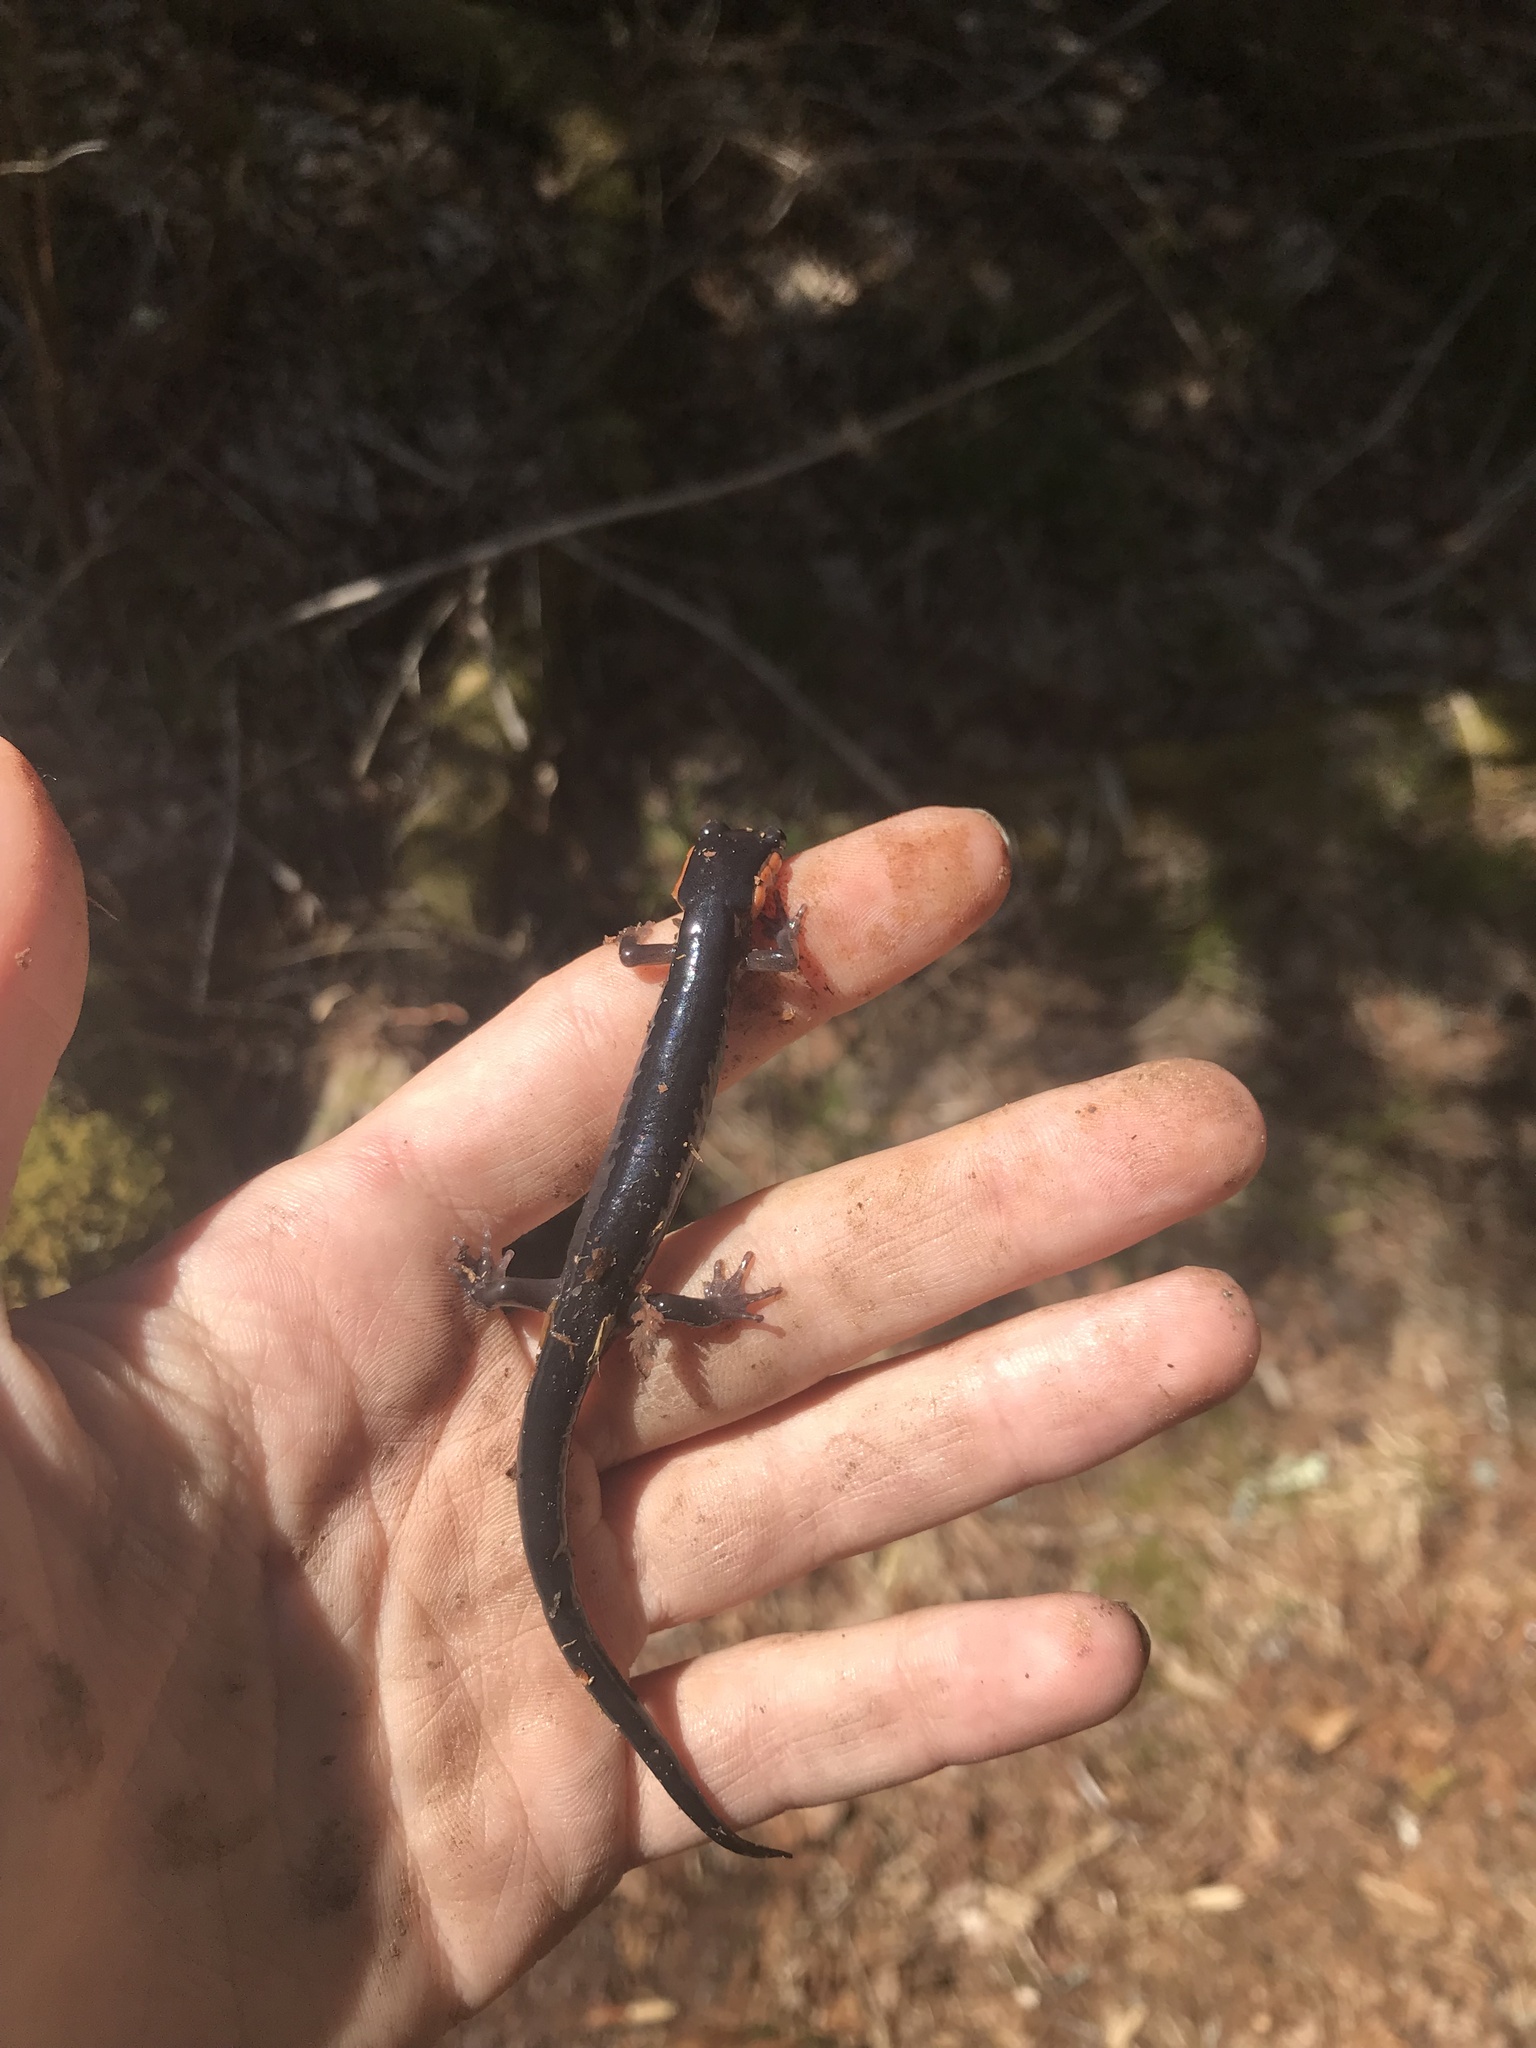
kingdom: Animalia
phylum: Chordata
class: Amphibia
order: Caudata
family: Plethodontidae
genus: Plethodon
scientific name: Plethodon jordani
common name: Red-cheeked salamander
